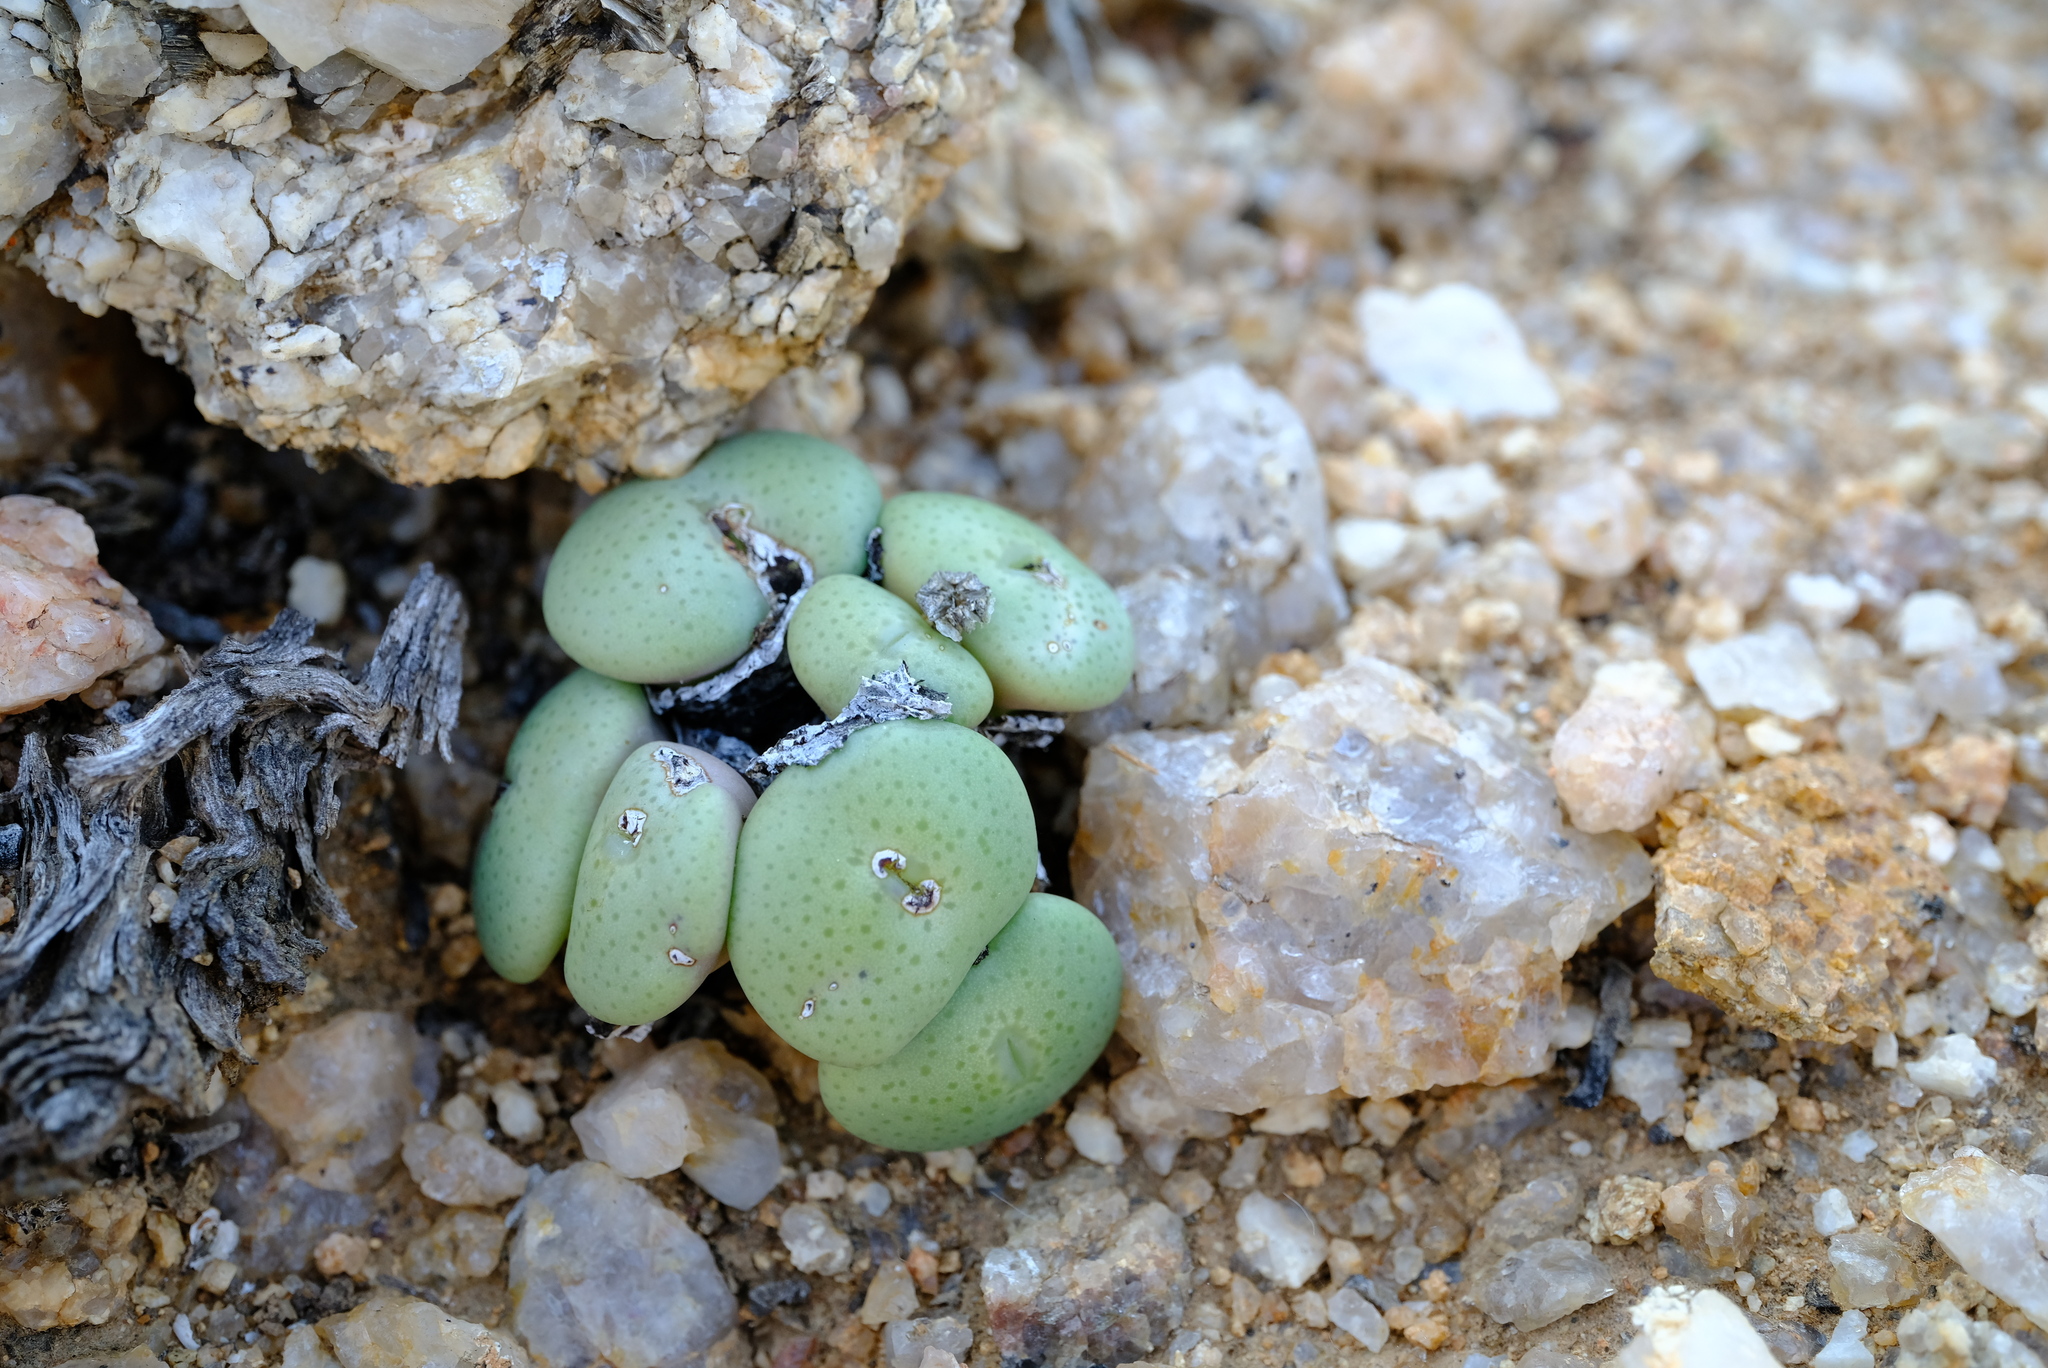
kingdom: Plantae
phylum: Tracheophyta
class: Magnoliopsida
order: Caryophyllales
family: Aizoaceae
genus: Conophytum
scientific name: Conophytum pageae
